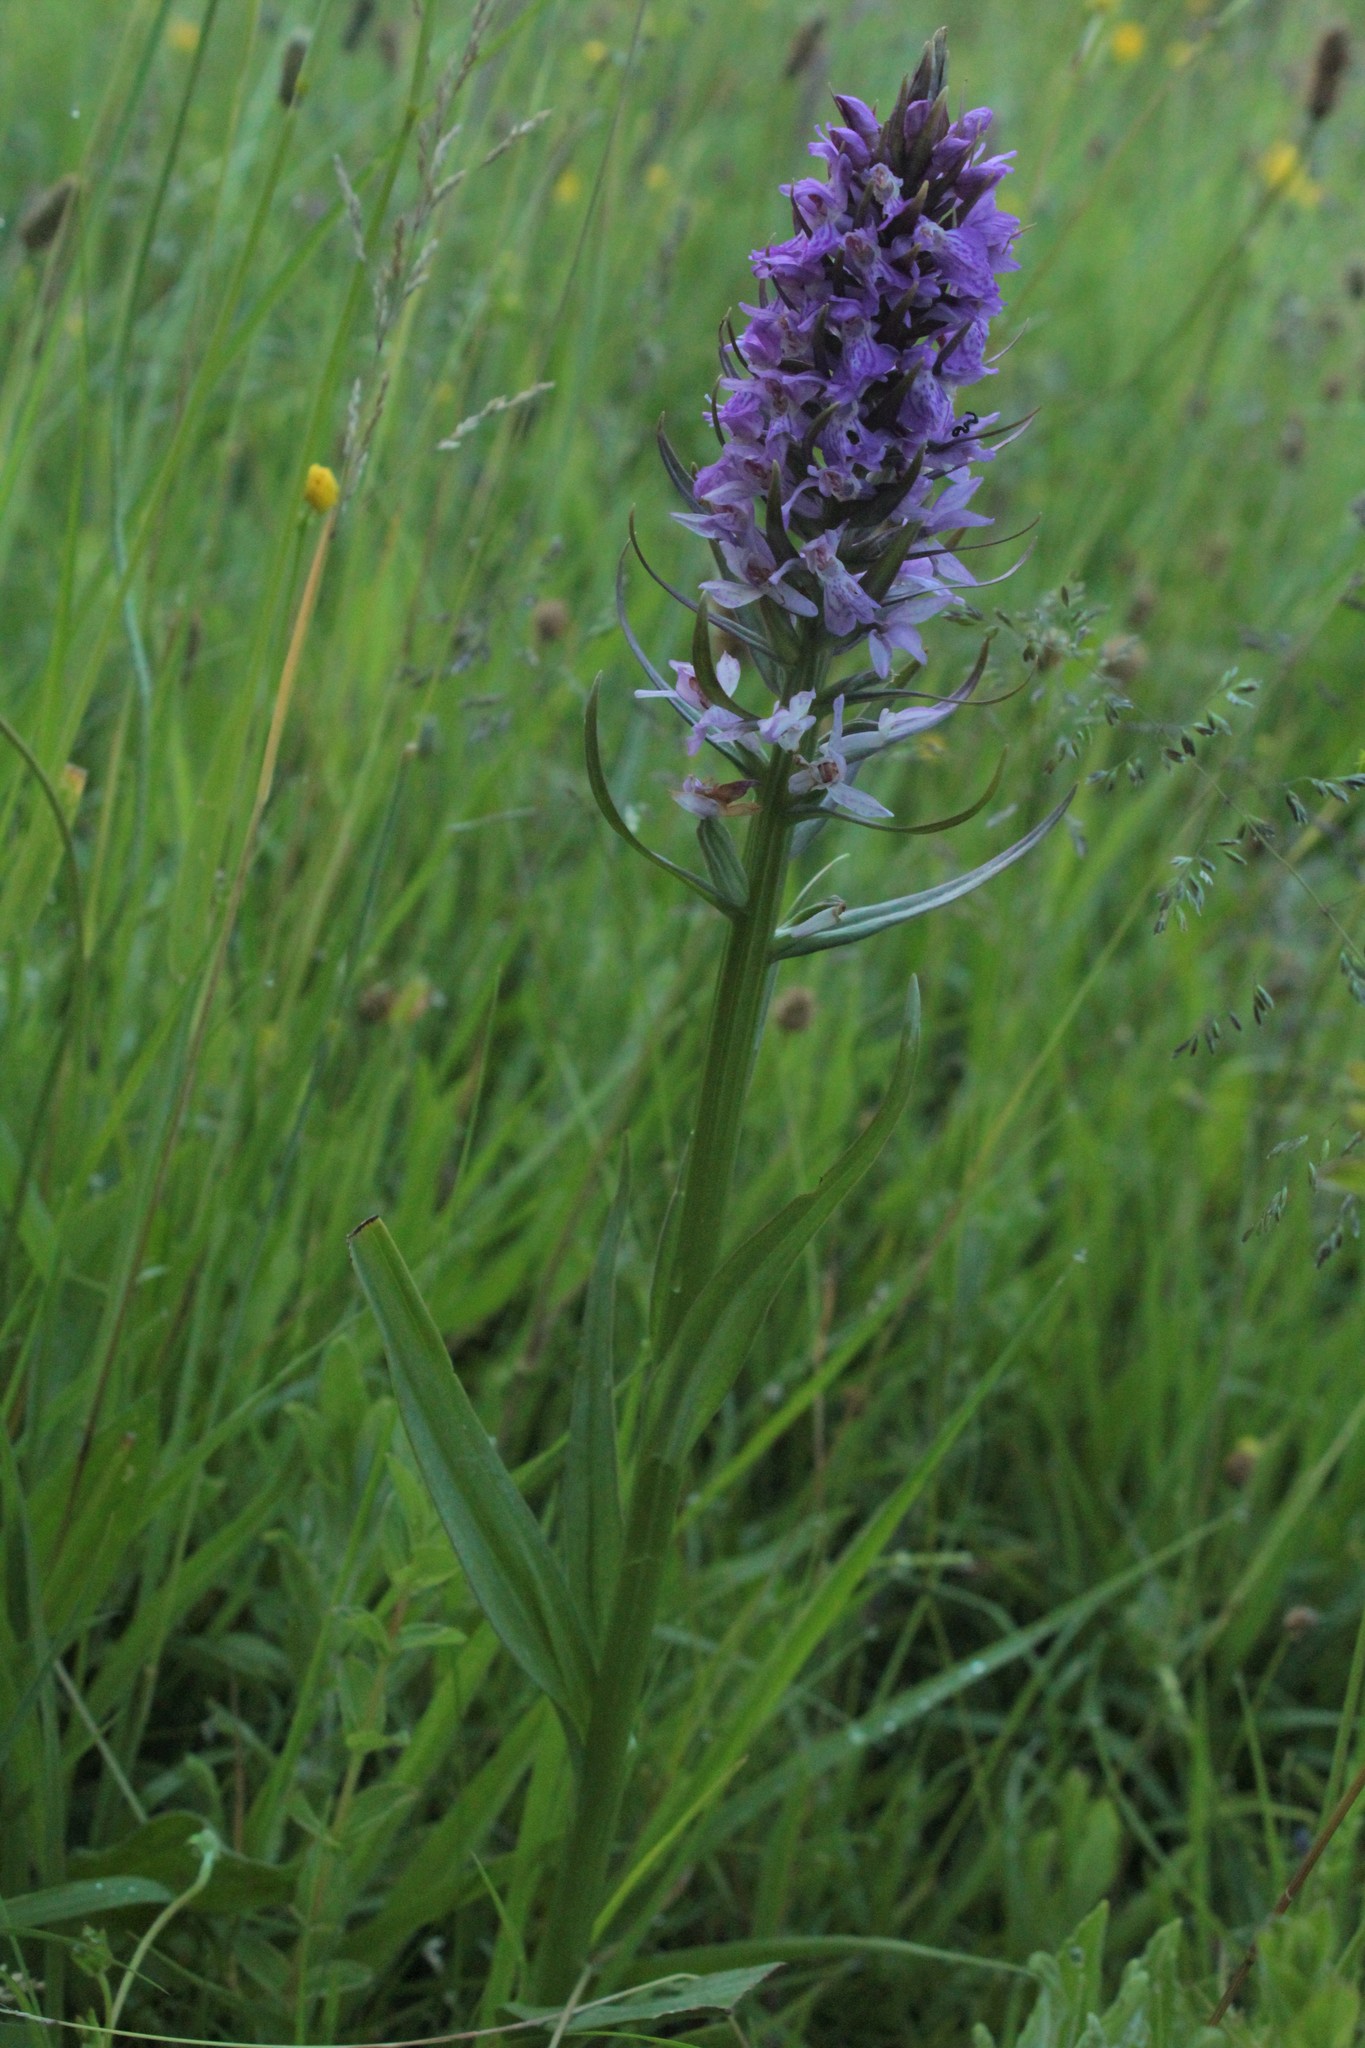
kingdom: Plantae
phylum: Tracheophyta
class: Liliopsida
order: Asparagales
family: Orchidaceae
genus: Dactylorhiza
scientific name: Dactylorhiza majalis
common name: Marsh orchid
